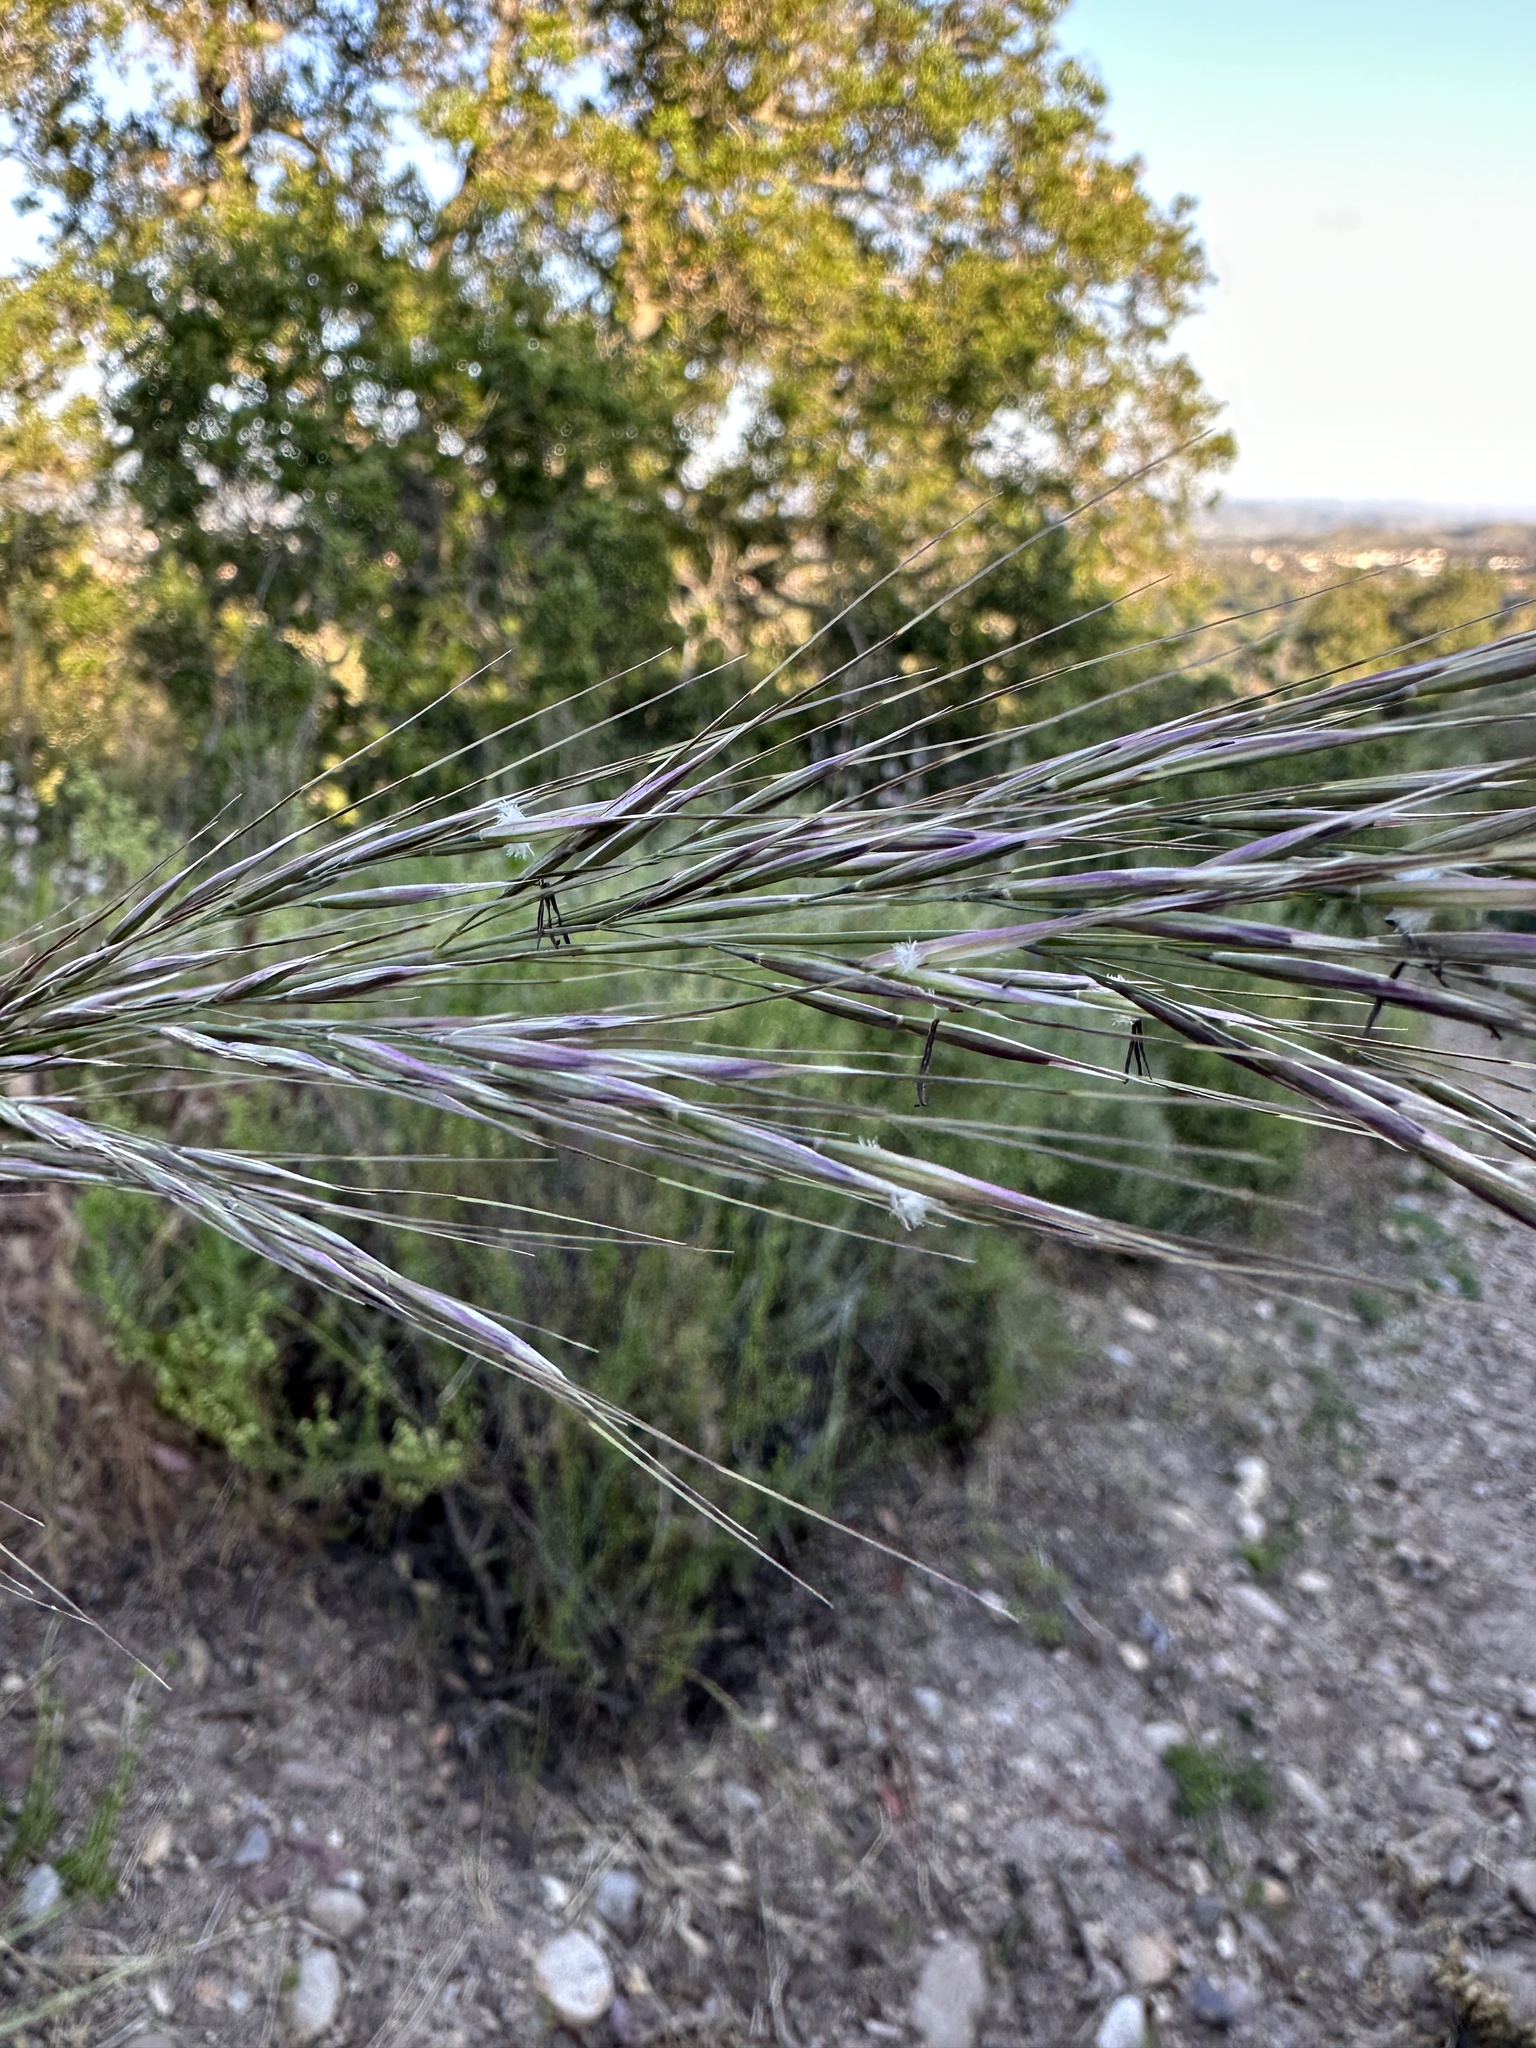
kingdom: Plantae
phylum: Tracheophyta
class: Liliopsida
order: Poales
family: Poaceae
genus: Eriocoma
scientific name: Eriocoma coronata
